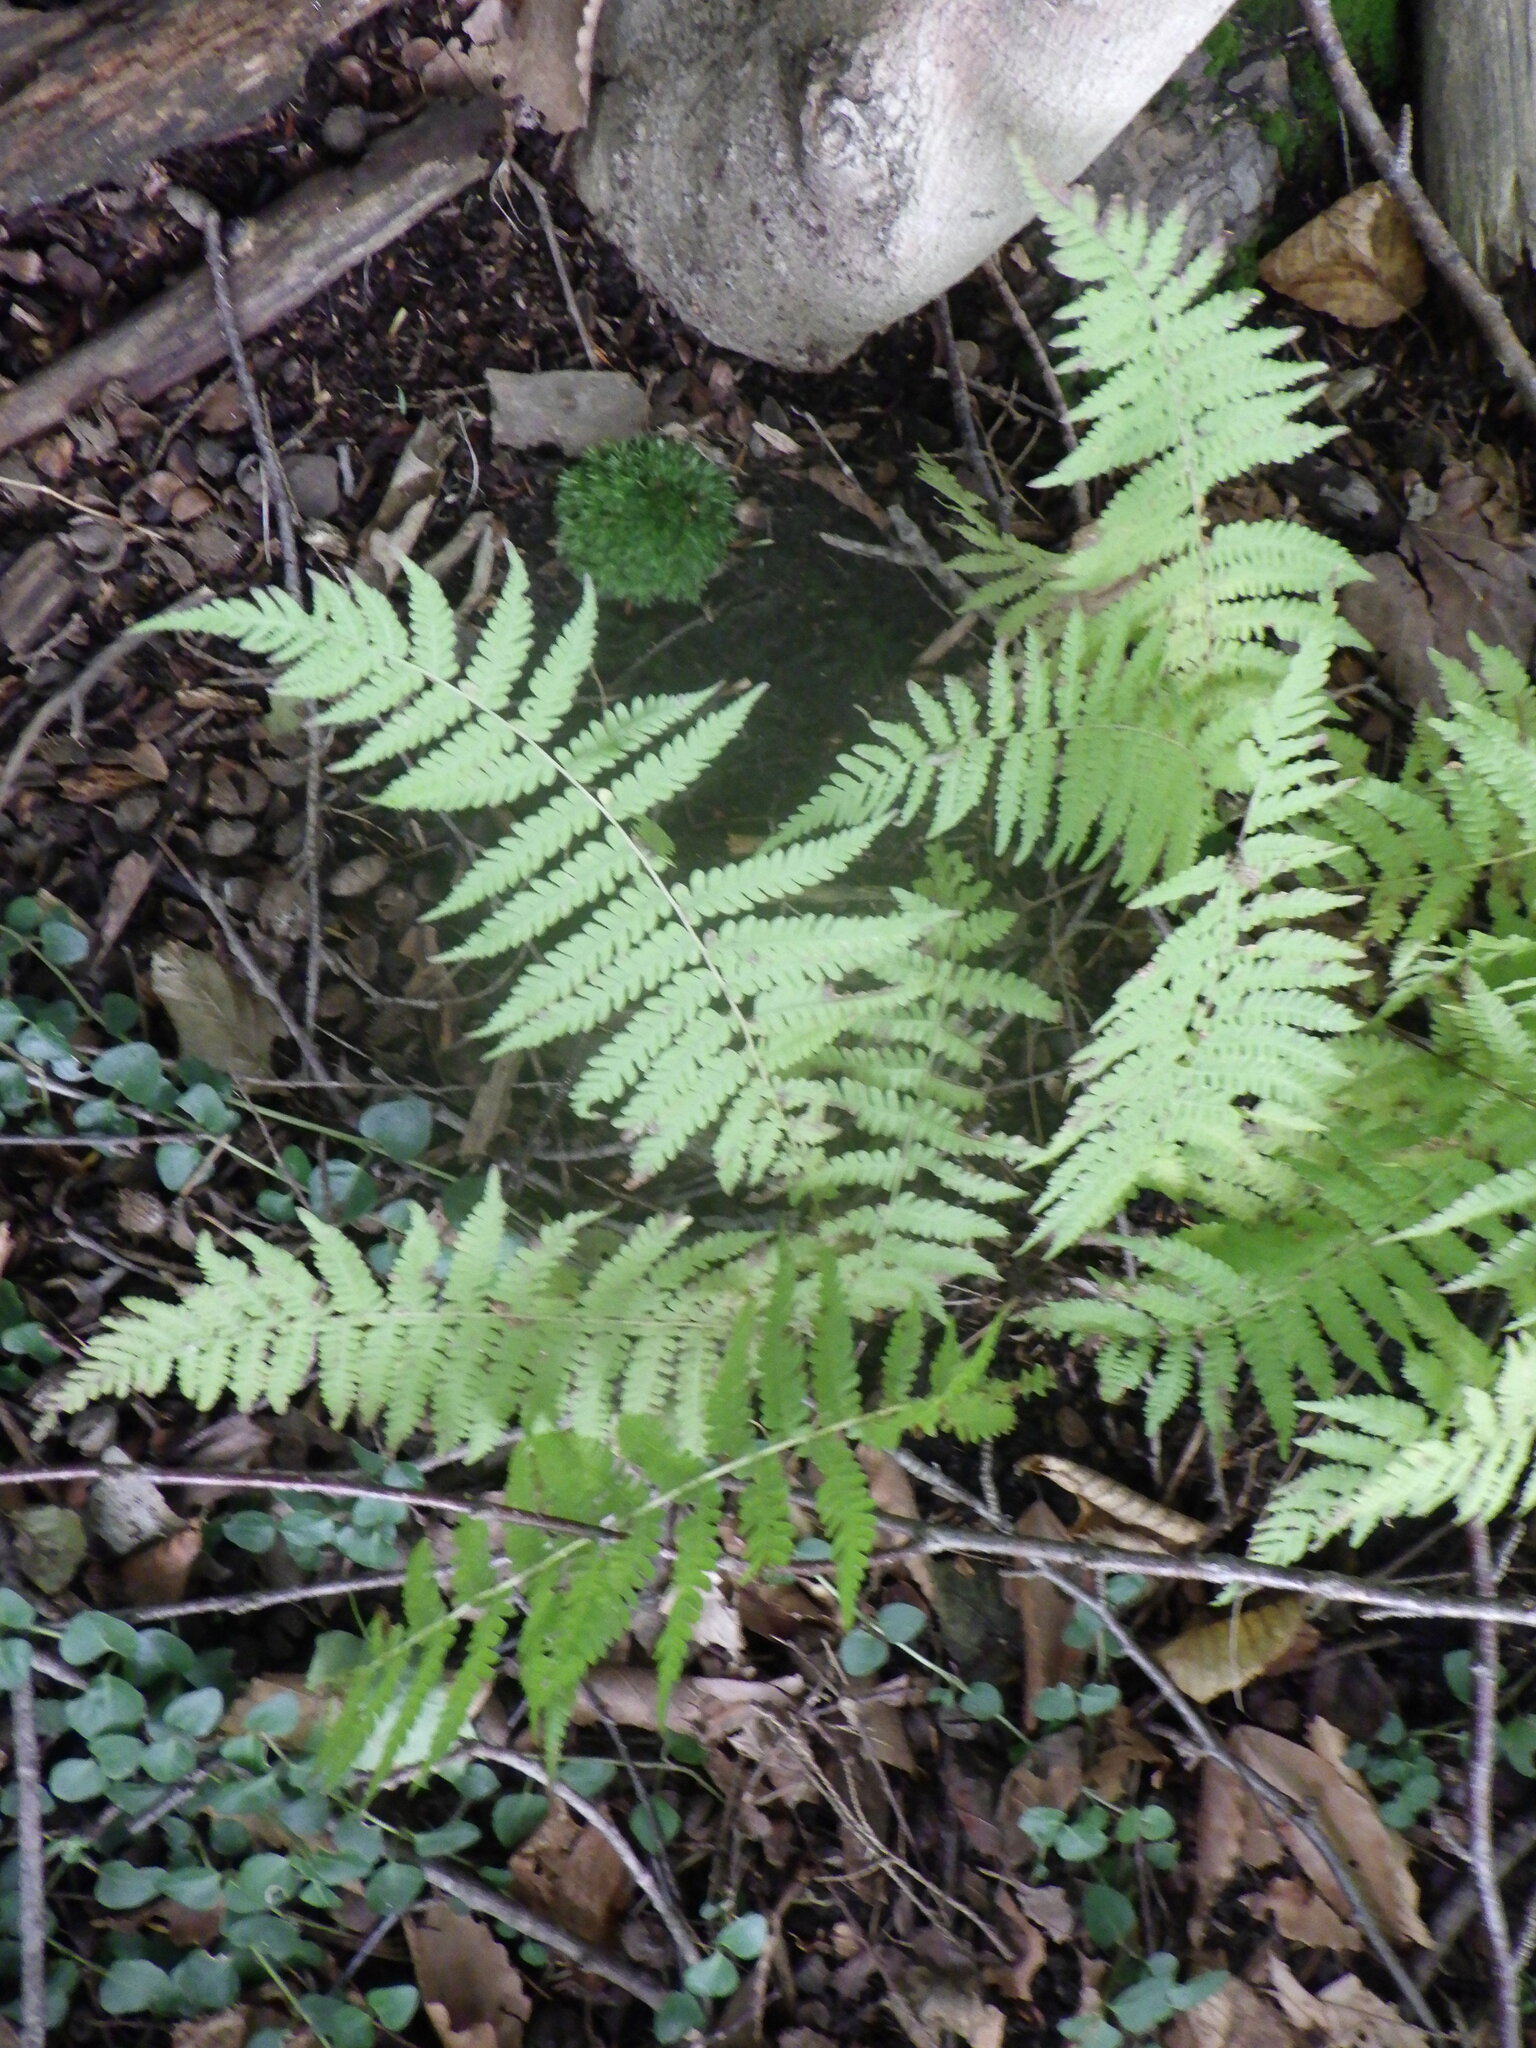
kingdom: Plantae
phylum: Tracheophyta
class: Polypodiopsida
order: Polypodiales
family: Thelypteridaceae
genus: Amauropelta
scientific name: Amauropelta noveboracensis
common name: New york fern
